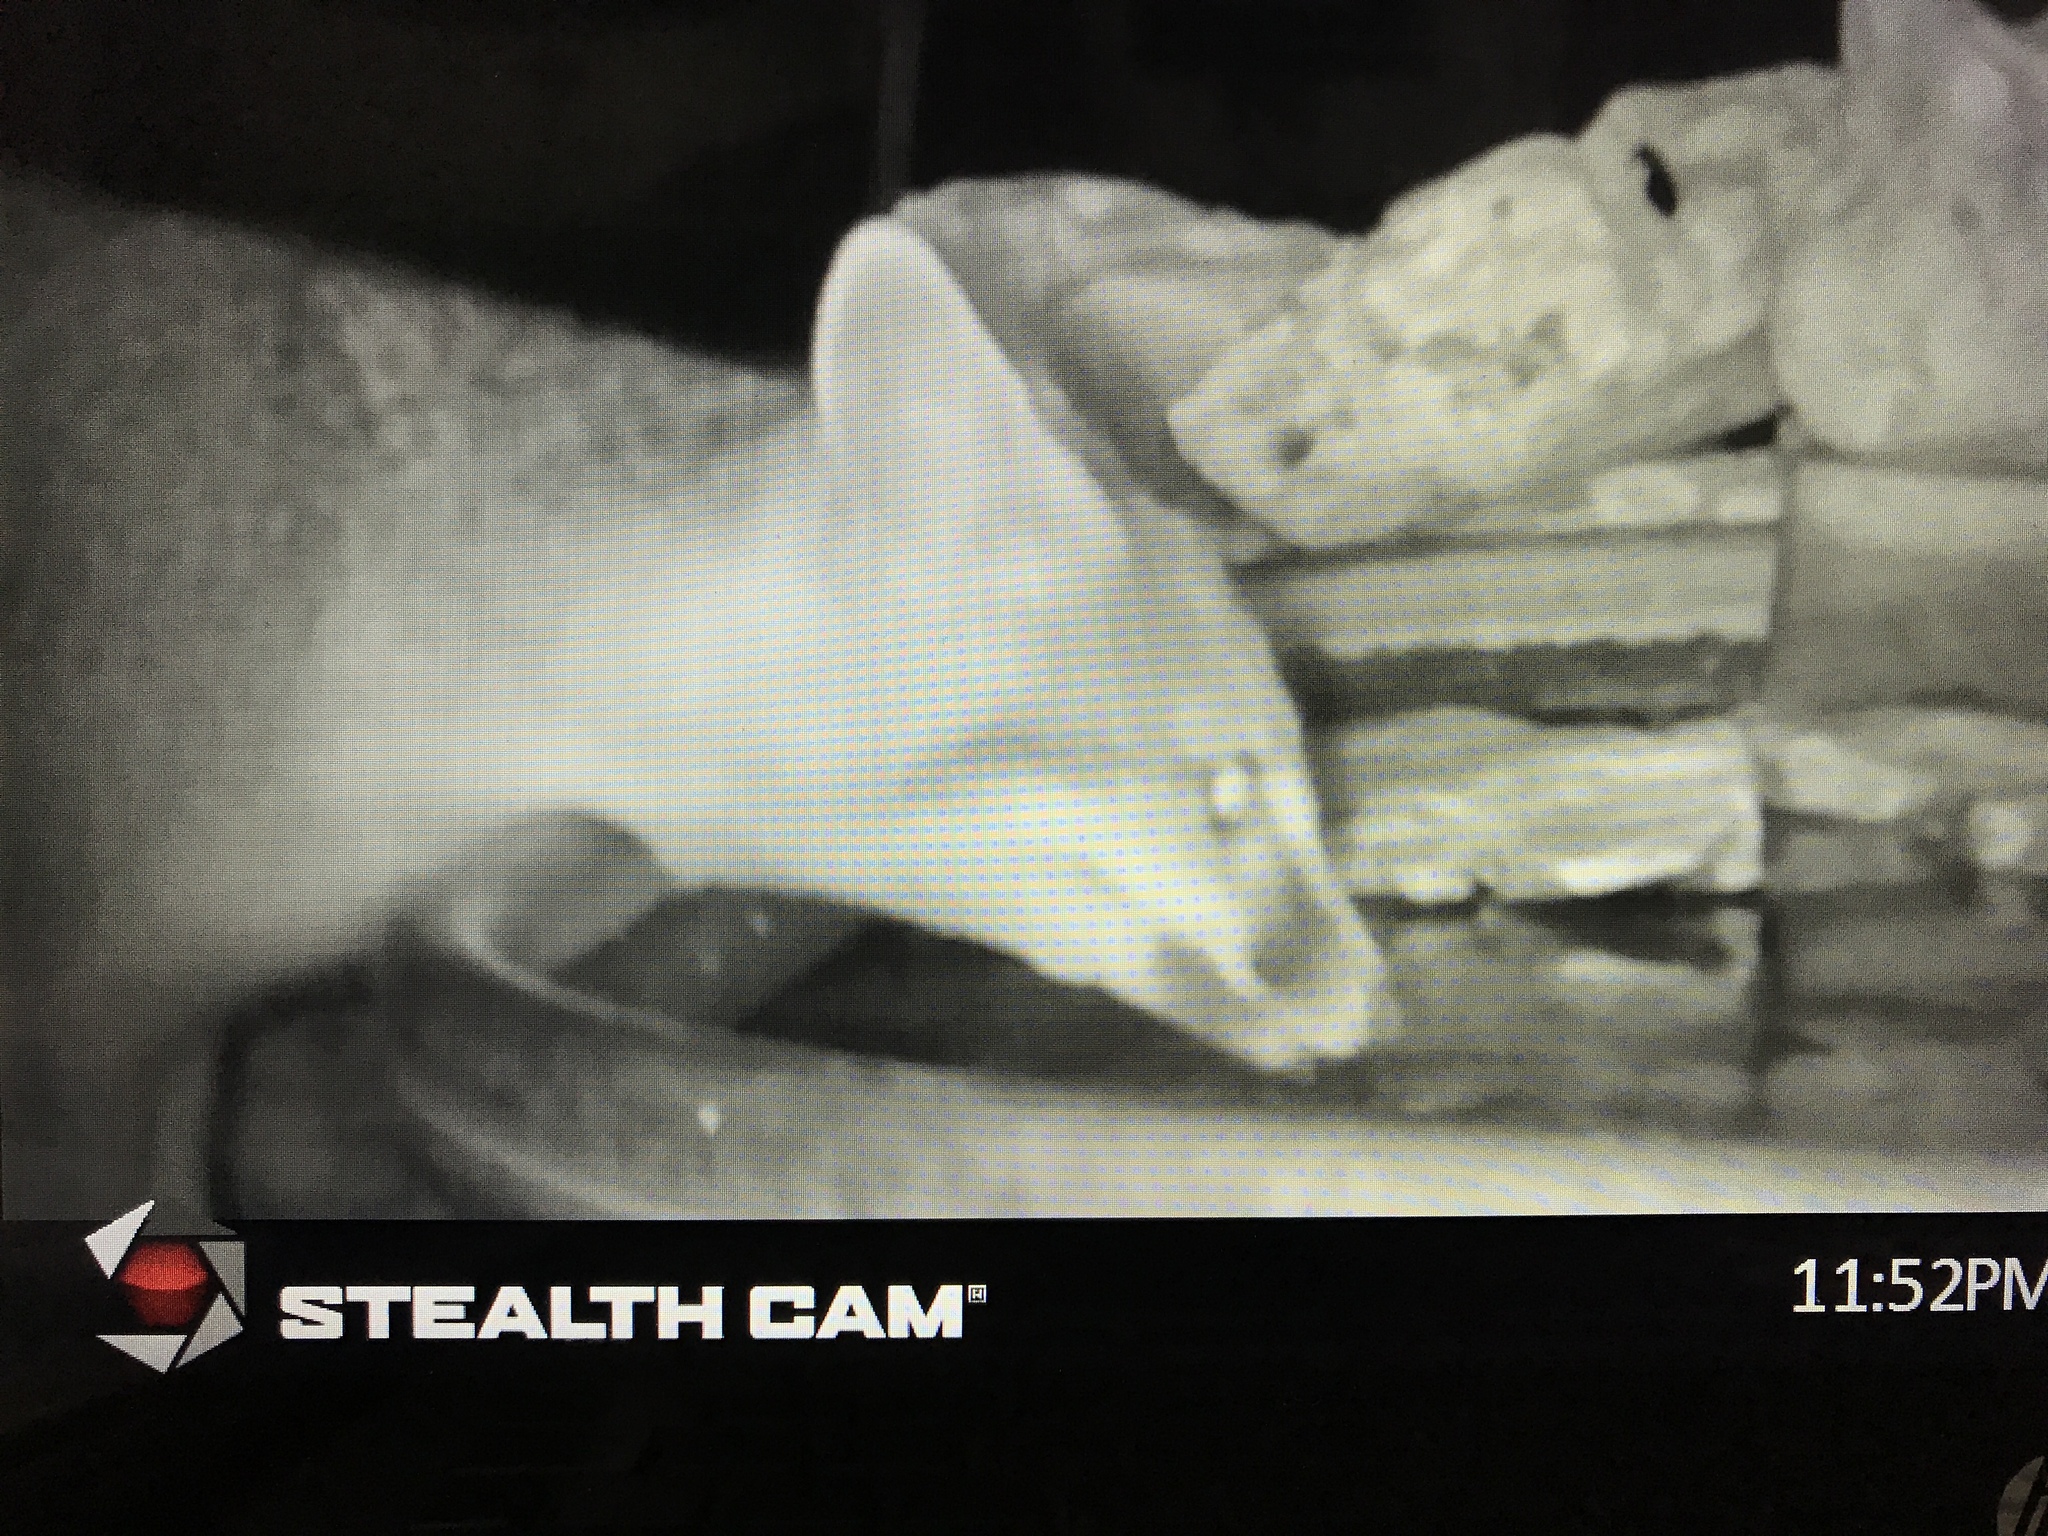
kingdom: Animalia
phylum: Chordata
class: Mammalia
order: Carnivora
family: Canidae
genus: Urocyon
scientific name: Urocyon cinereoargenteus
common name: Gray fox
